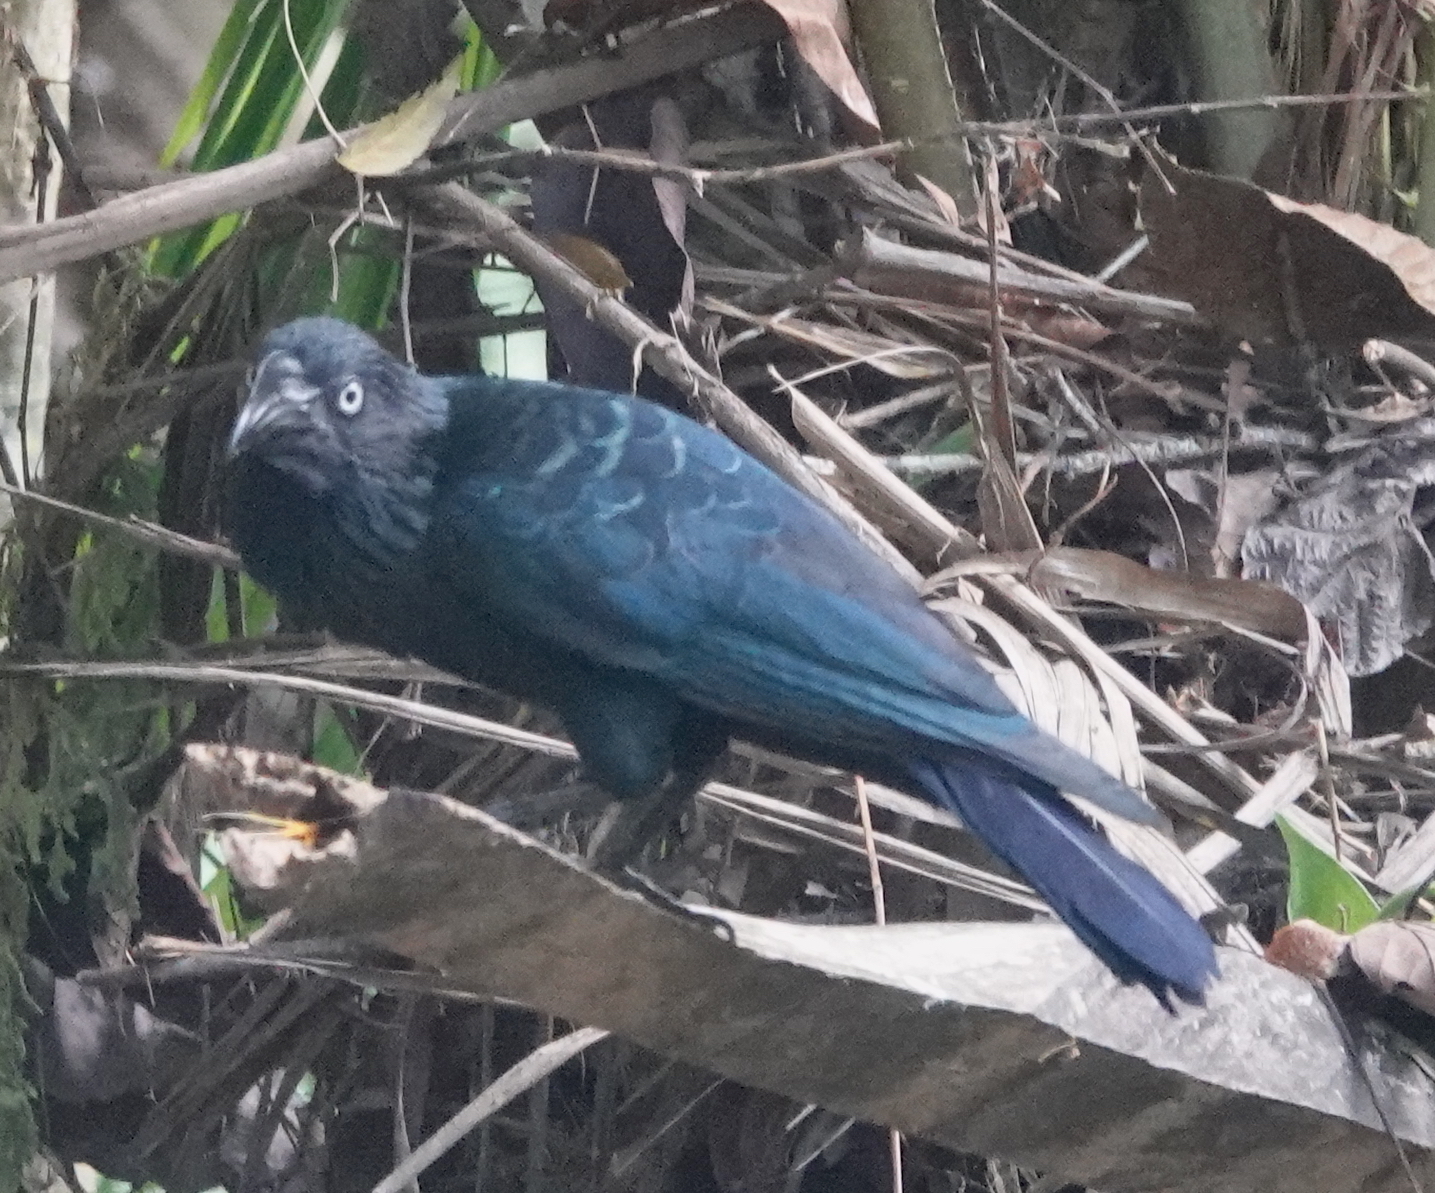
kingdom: Animalia
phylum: Chordata
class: Aves
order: Cuculiformes
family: Cuculidae
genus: Crotophaga
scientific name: Crotophaga major
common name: Greater ani
